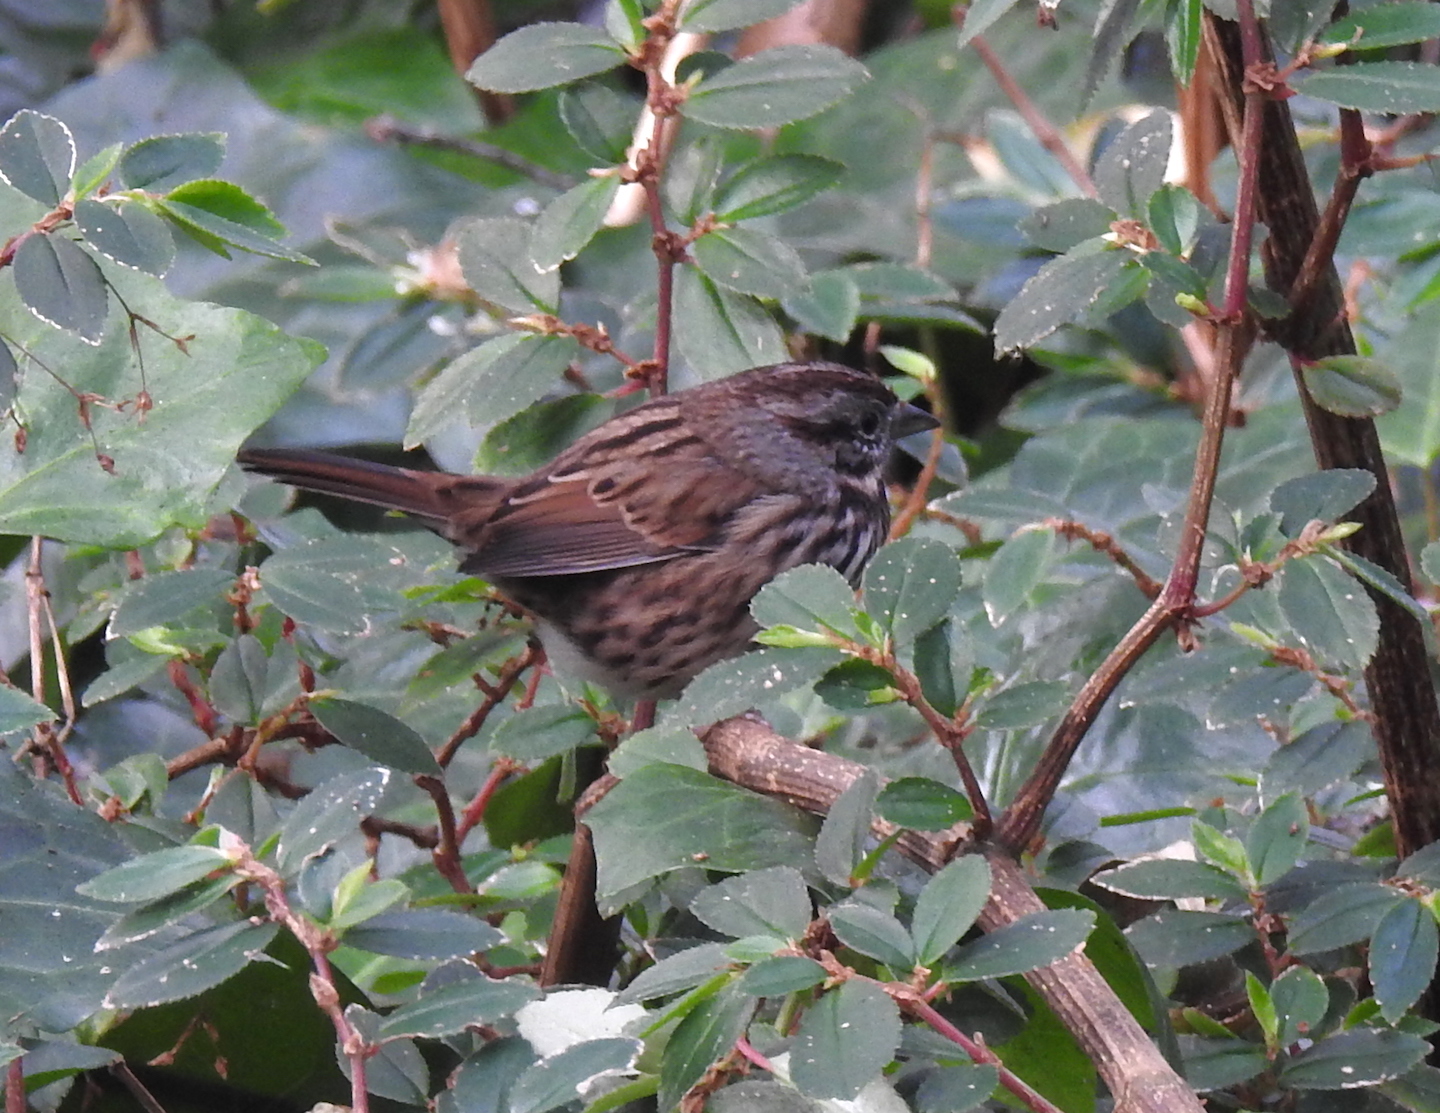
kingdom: Animalia
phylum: Chordata
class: Aves
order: Passeriformes
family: Passerellidae
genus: Melospiza
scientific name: Melospiza melodia
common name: Song sparrow
